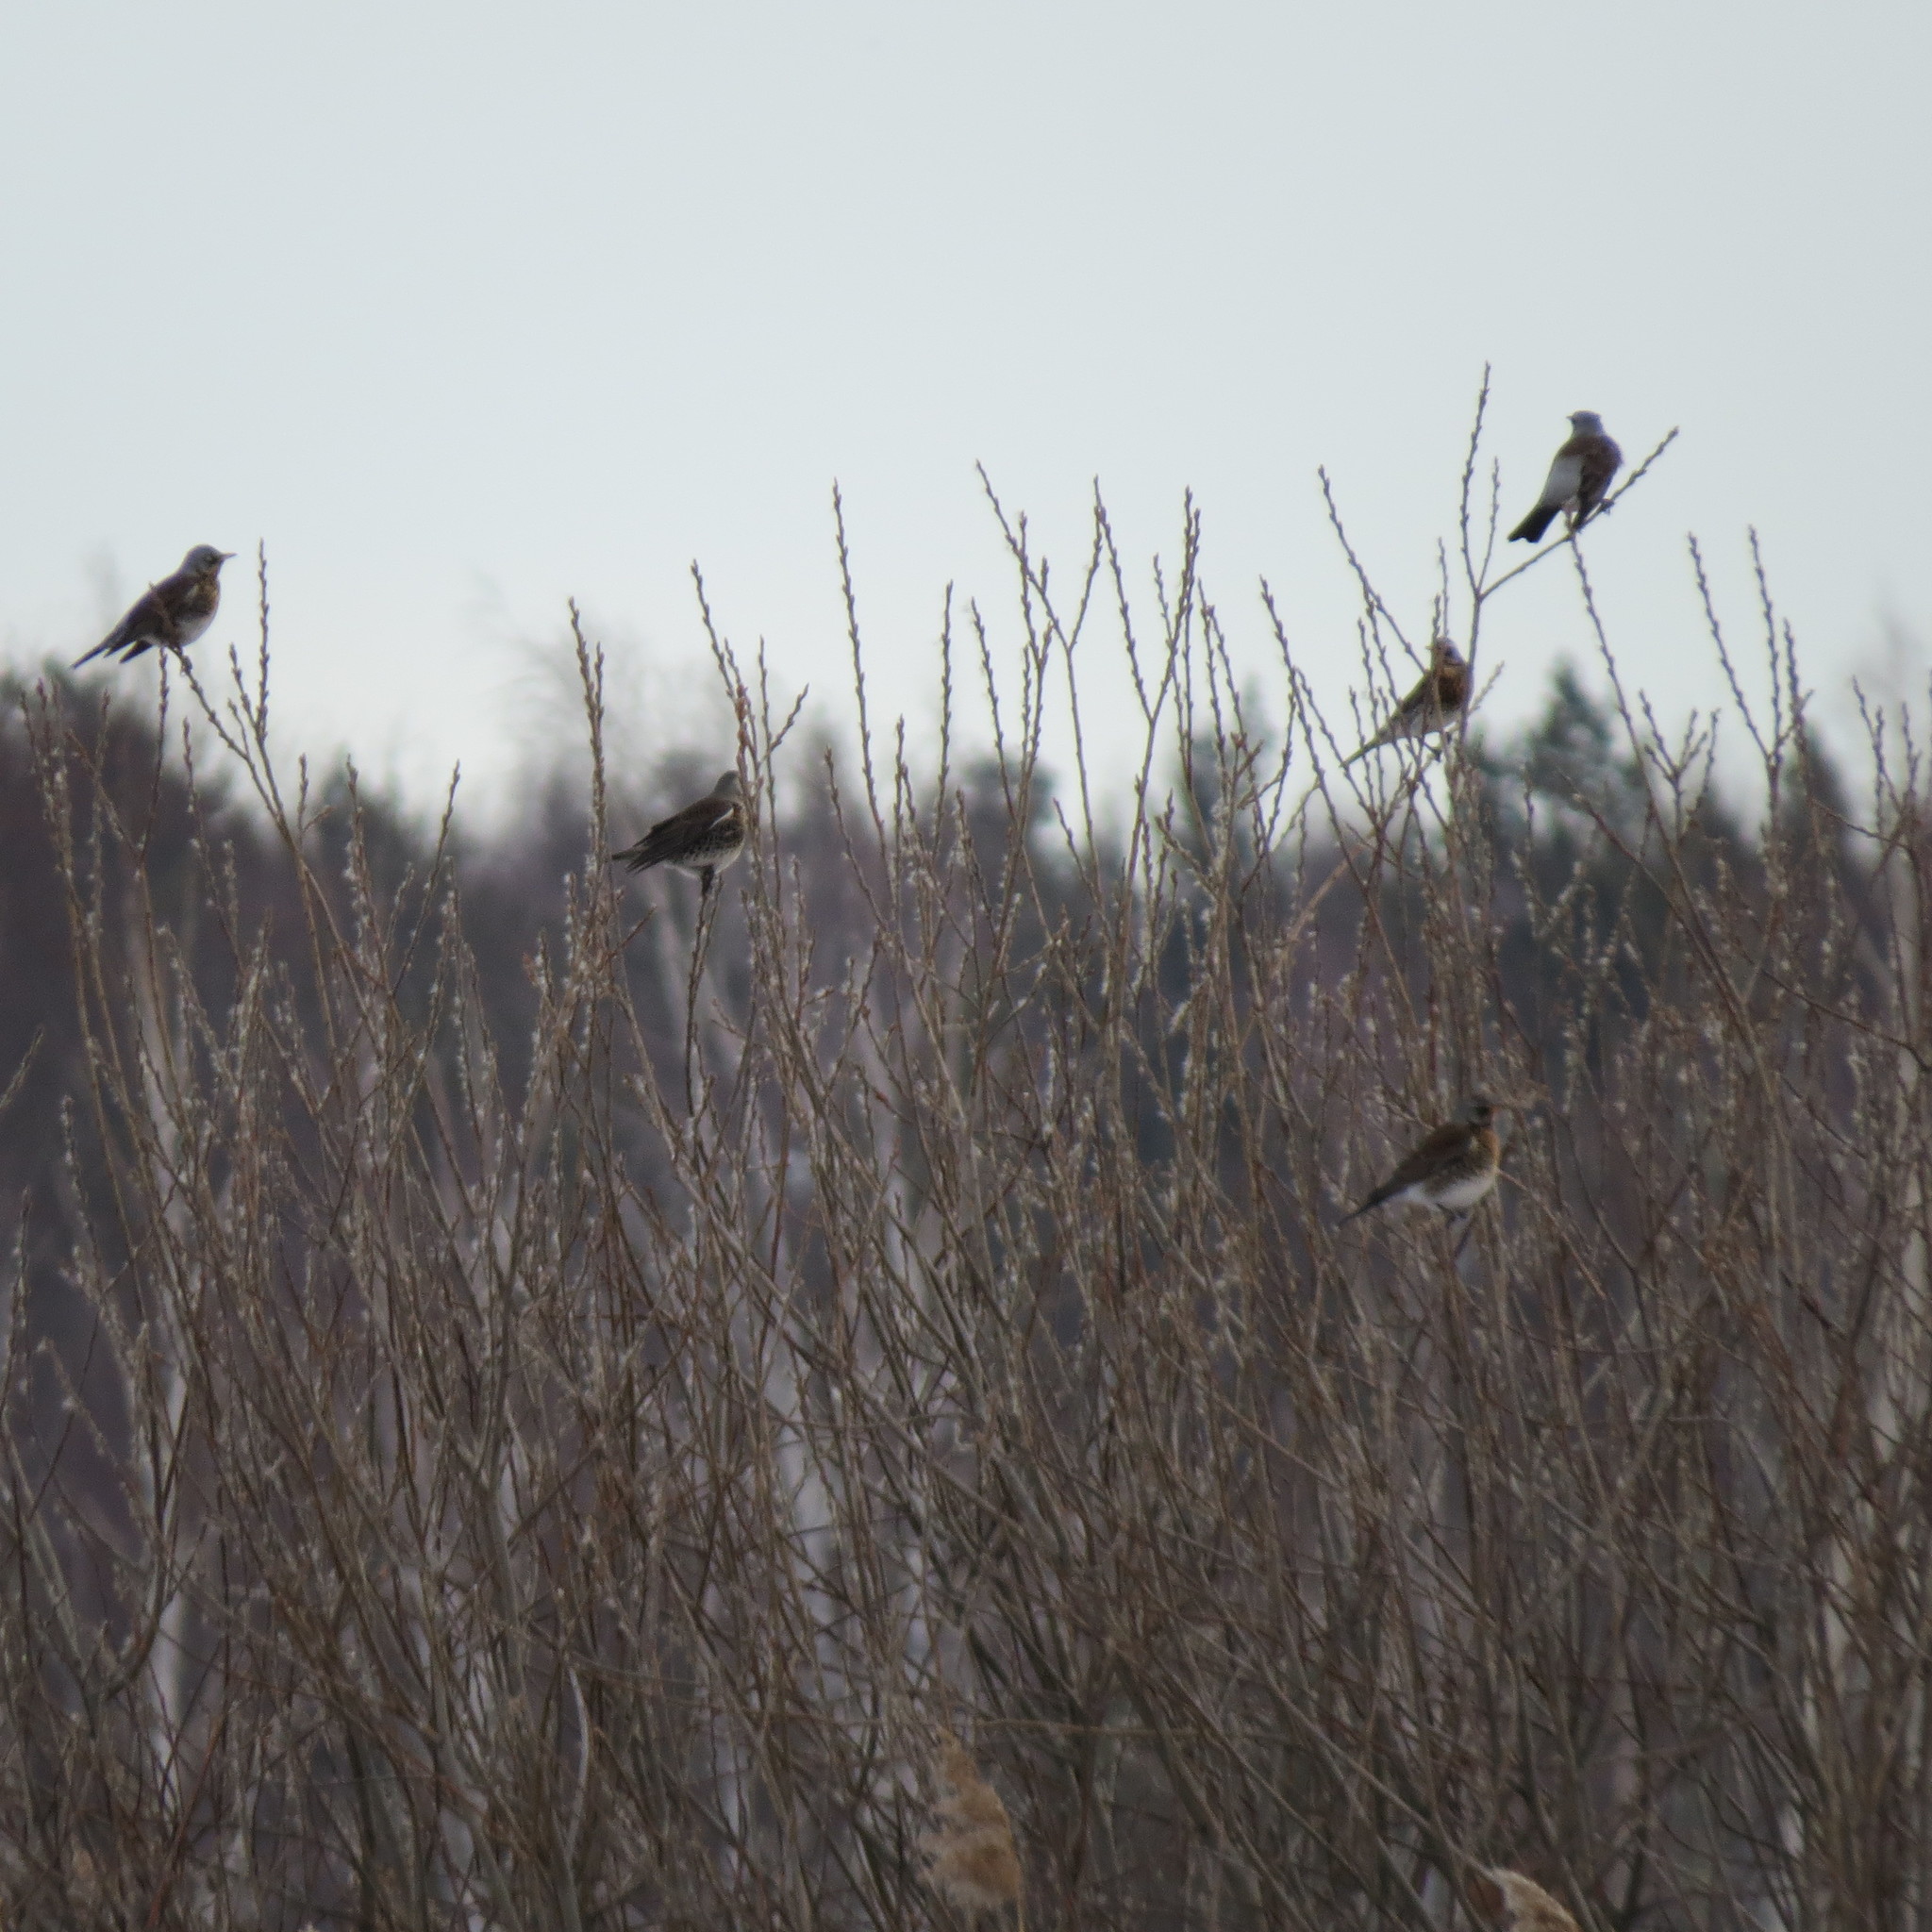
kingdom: Animalia
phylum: Chordata
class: Aves
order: Passeriformes
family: Turdidae
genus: Turdus
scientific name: Turdus pilaris
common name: Fieldfare
